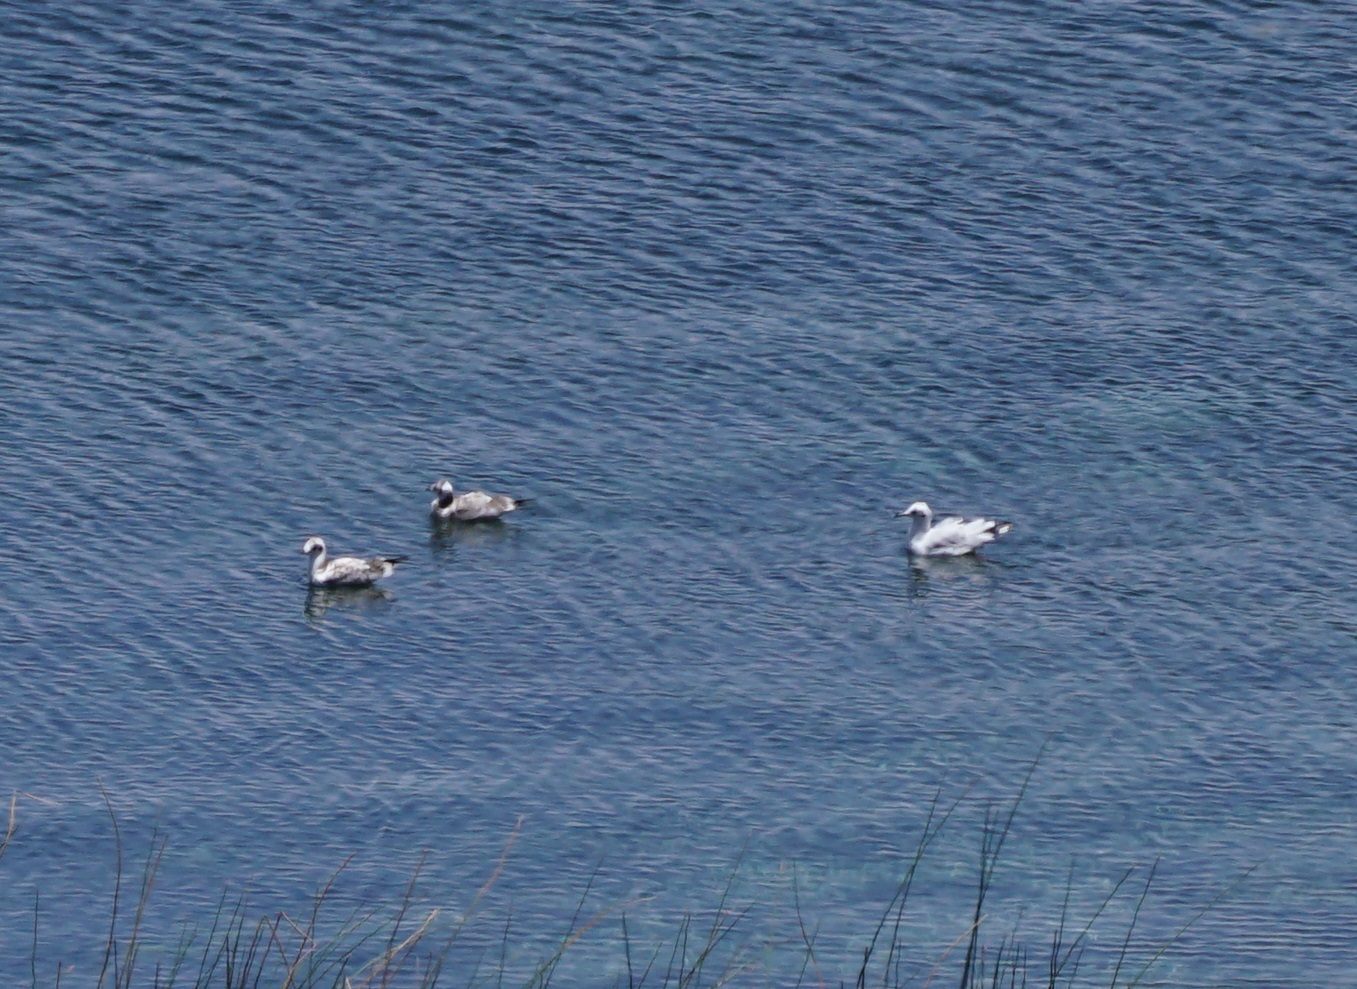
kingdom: Animalia
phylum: Chordata
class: Aves
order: Charadriiformes
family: Laridae
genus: Chroicocephalus
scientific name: Chroicocephalus serranus
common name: Andean gull
